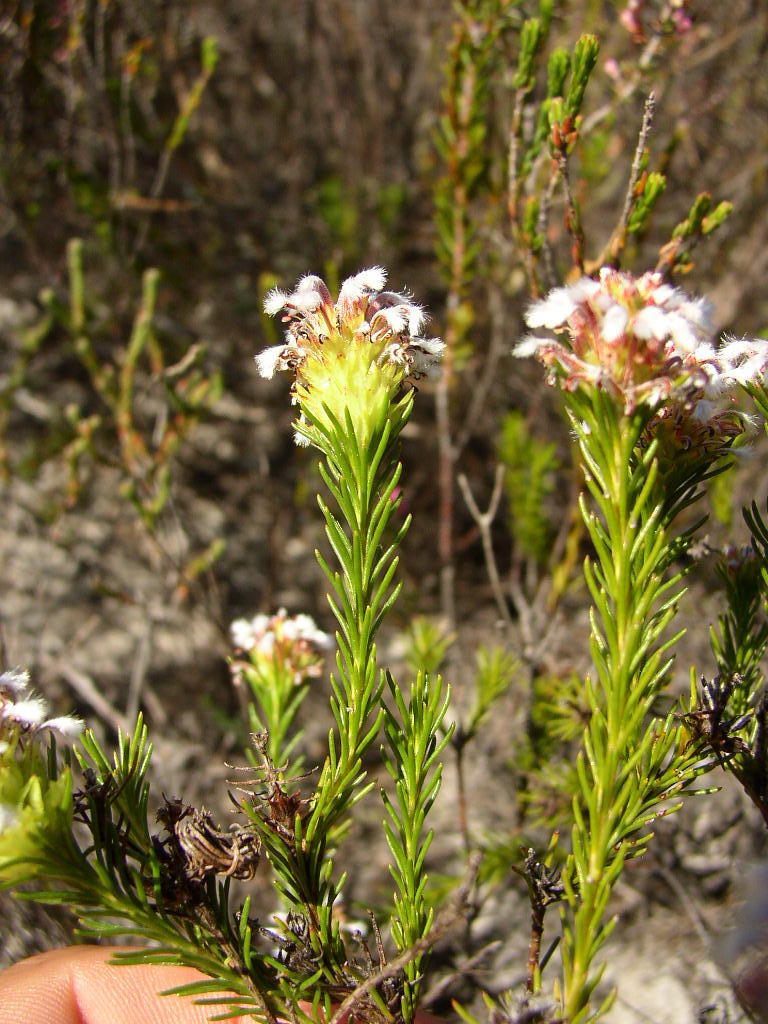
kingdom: Plantae
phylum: Tracheophyta
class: Magnoliopsida
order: Proteales
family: Proteaceae
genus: Spatalla
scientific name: Spatalla squamata
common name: Silky spoon
